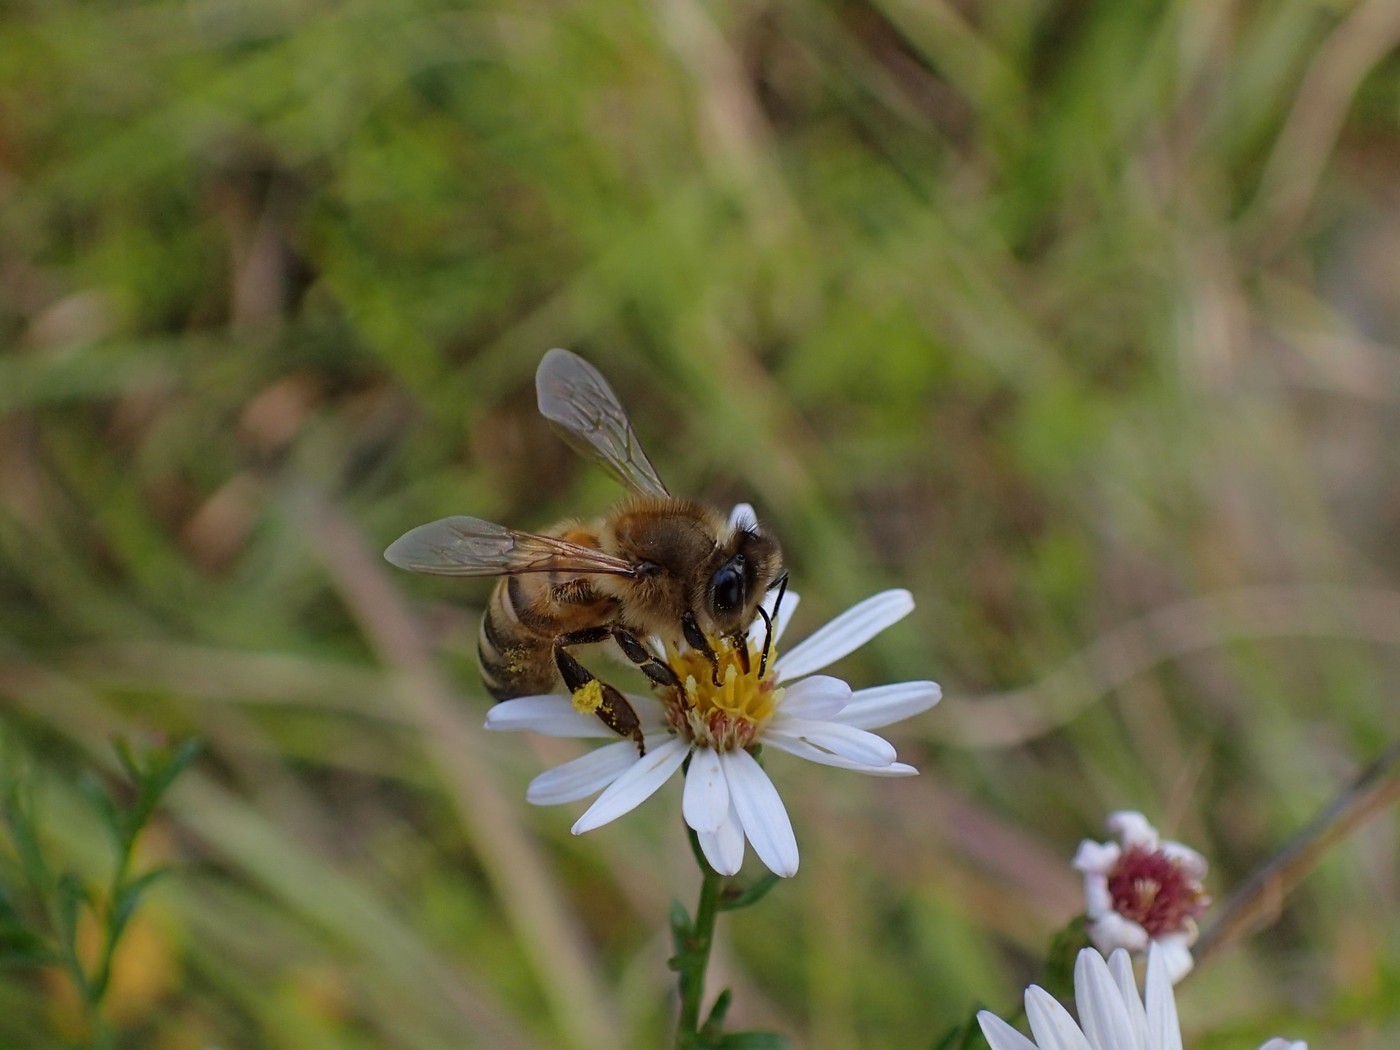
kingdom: Animalia
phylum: Arthropoda
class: Insecta
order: Hymenoptera
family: Apidae
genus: Apis
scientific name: Apis mellifera
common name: Honey bee
